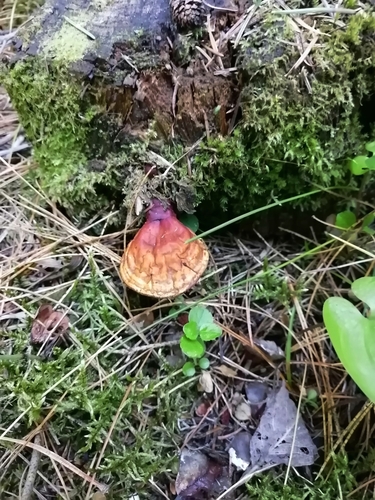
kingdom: Fungi
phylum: Basidiomycota
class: Agaricomycetes
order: Polyporales
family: Polyporaceae
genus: Ganoderma
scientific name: Ganoderma lucidum
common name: Lacquered bracket
